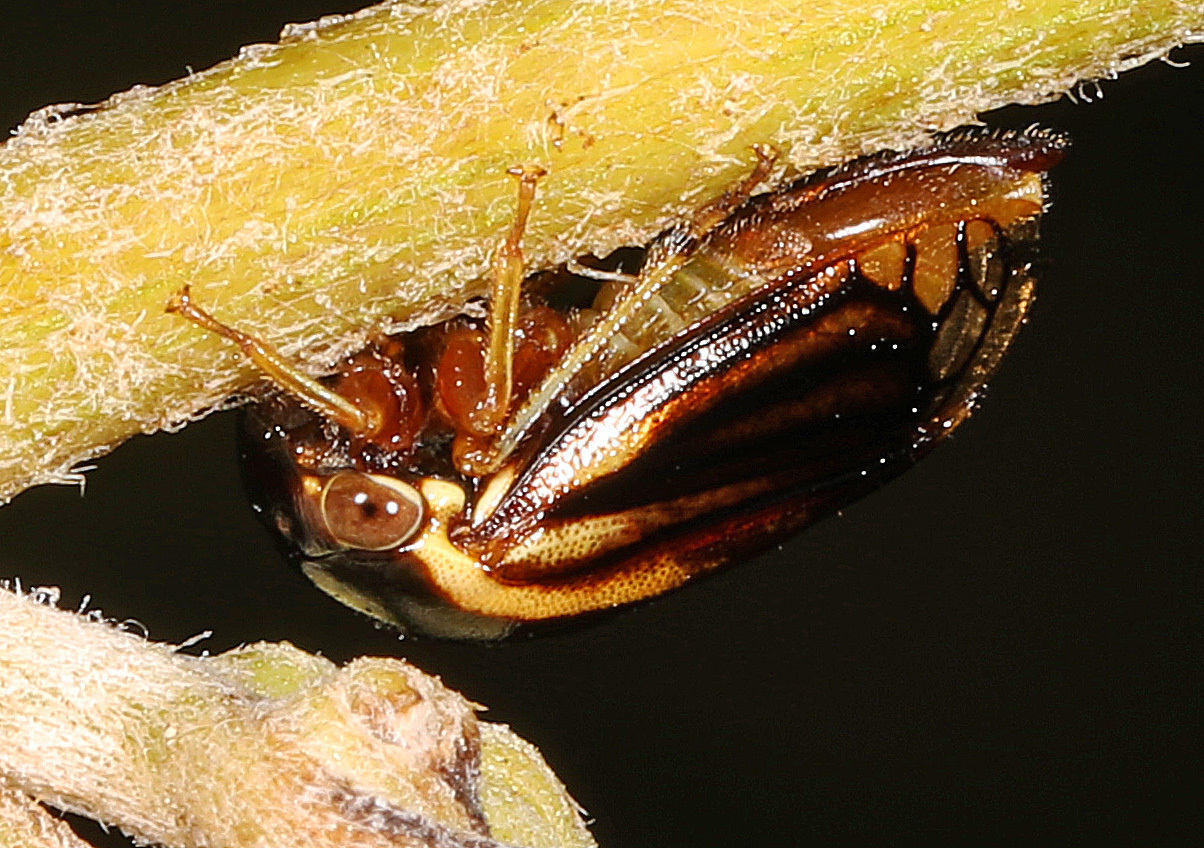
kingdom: Animalia
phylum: Arthropoda
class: Insecta
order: Hemiptera
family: Membracidae
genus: Acutalis
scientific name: Acutalis tartarea
